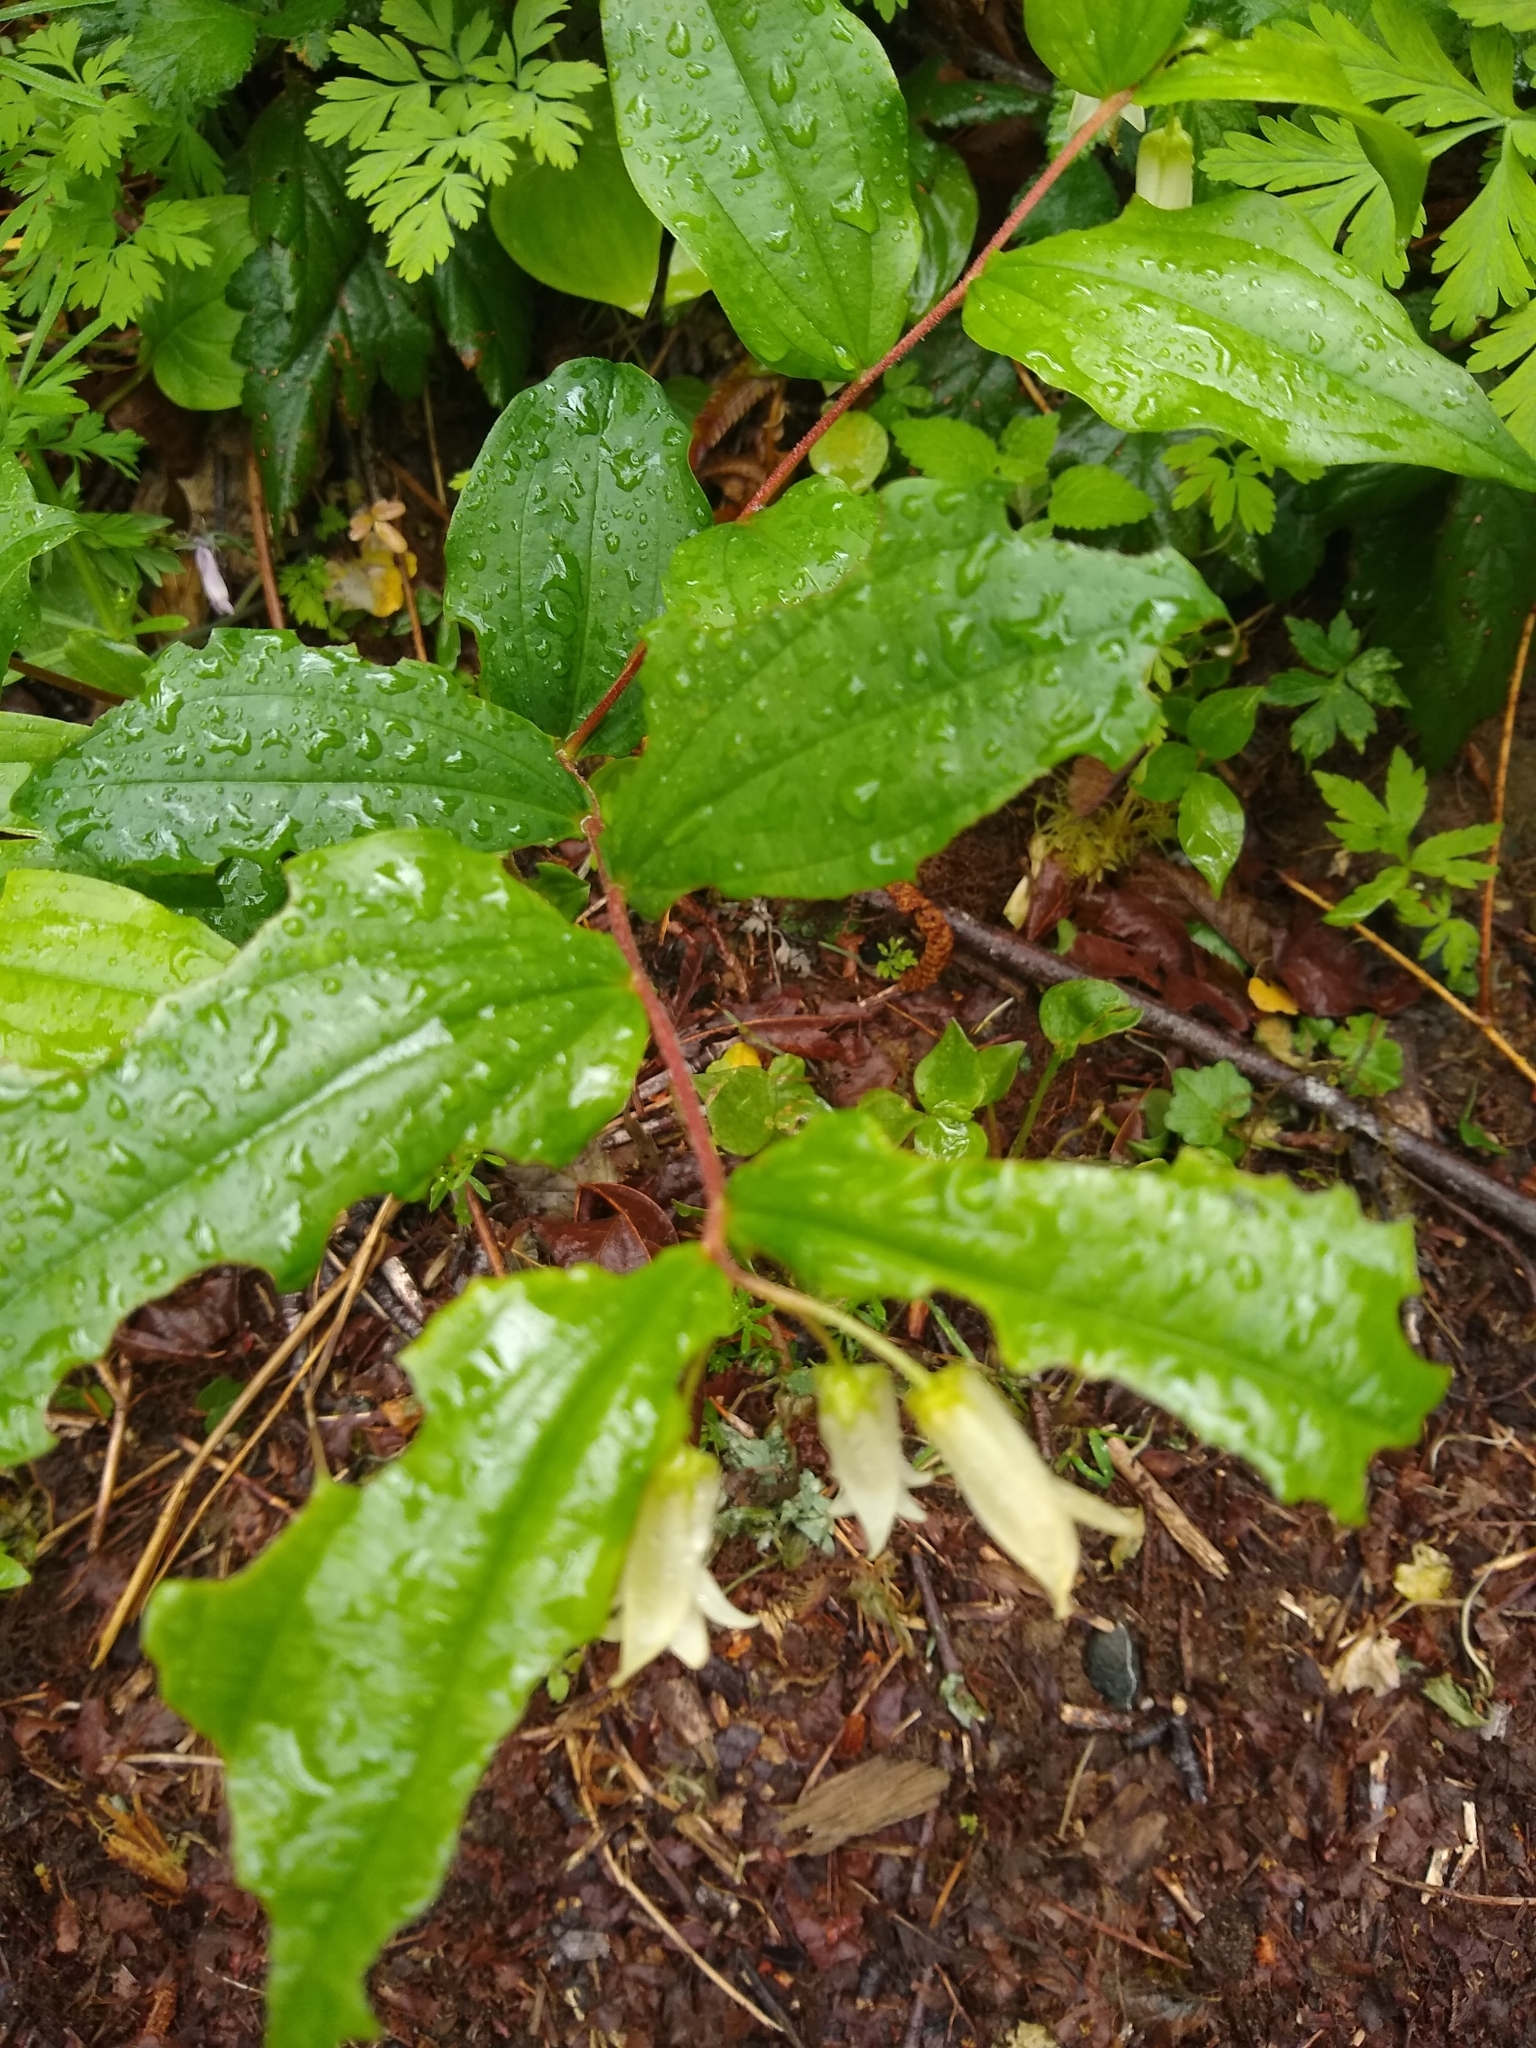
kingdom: Plantae
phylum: Tracheophyta
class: Liliopsida
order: Liliales
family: Liliaceae
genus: Prosartes
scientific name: Prosartes smithii
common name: Fairy-lantern
